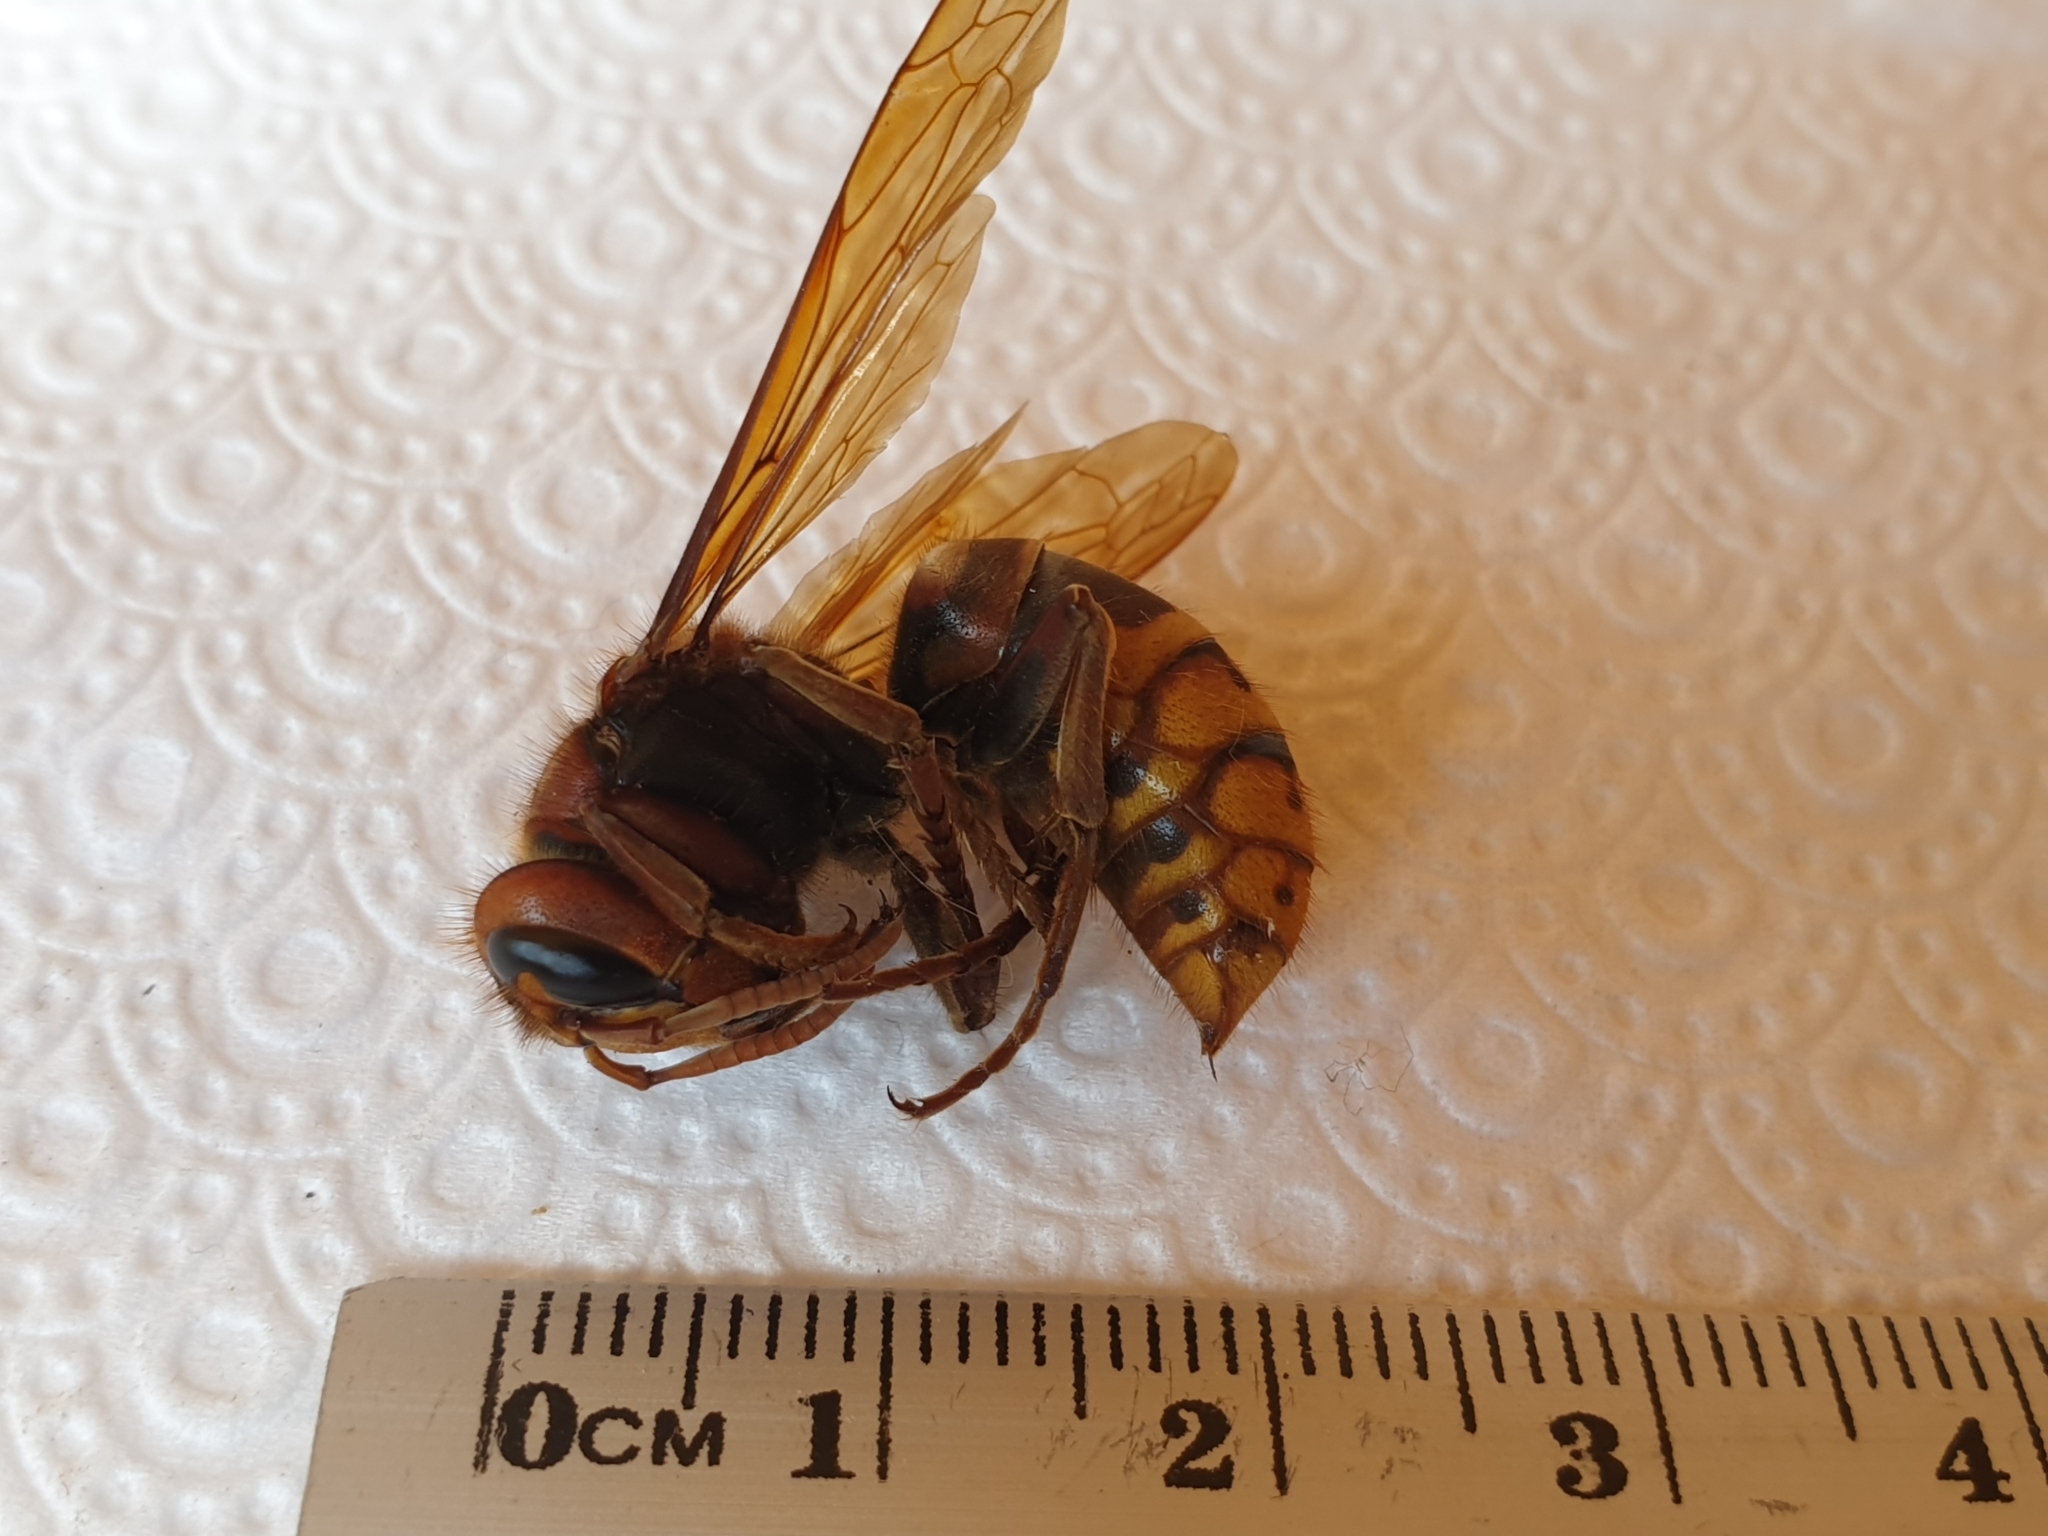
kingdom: Animalia
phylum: Arthropoda
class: Insecta
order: Hymenoptera
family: Vespidae
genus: Vespa
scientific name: Vespa crabro
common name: Hornet
